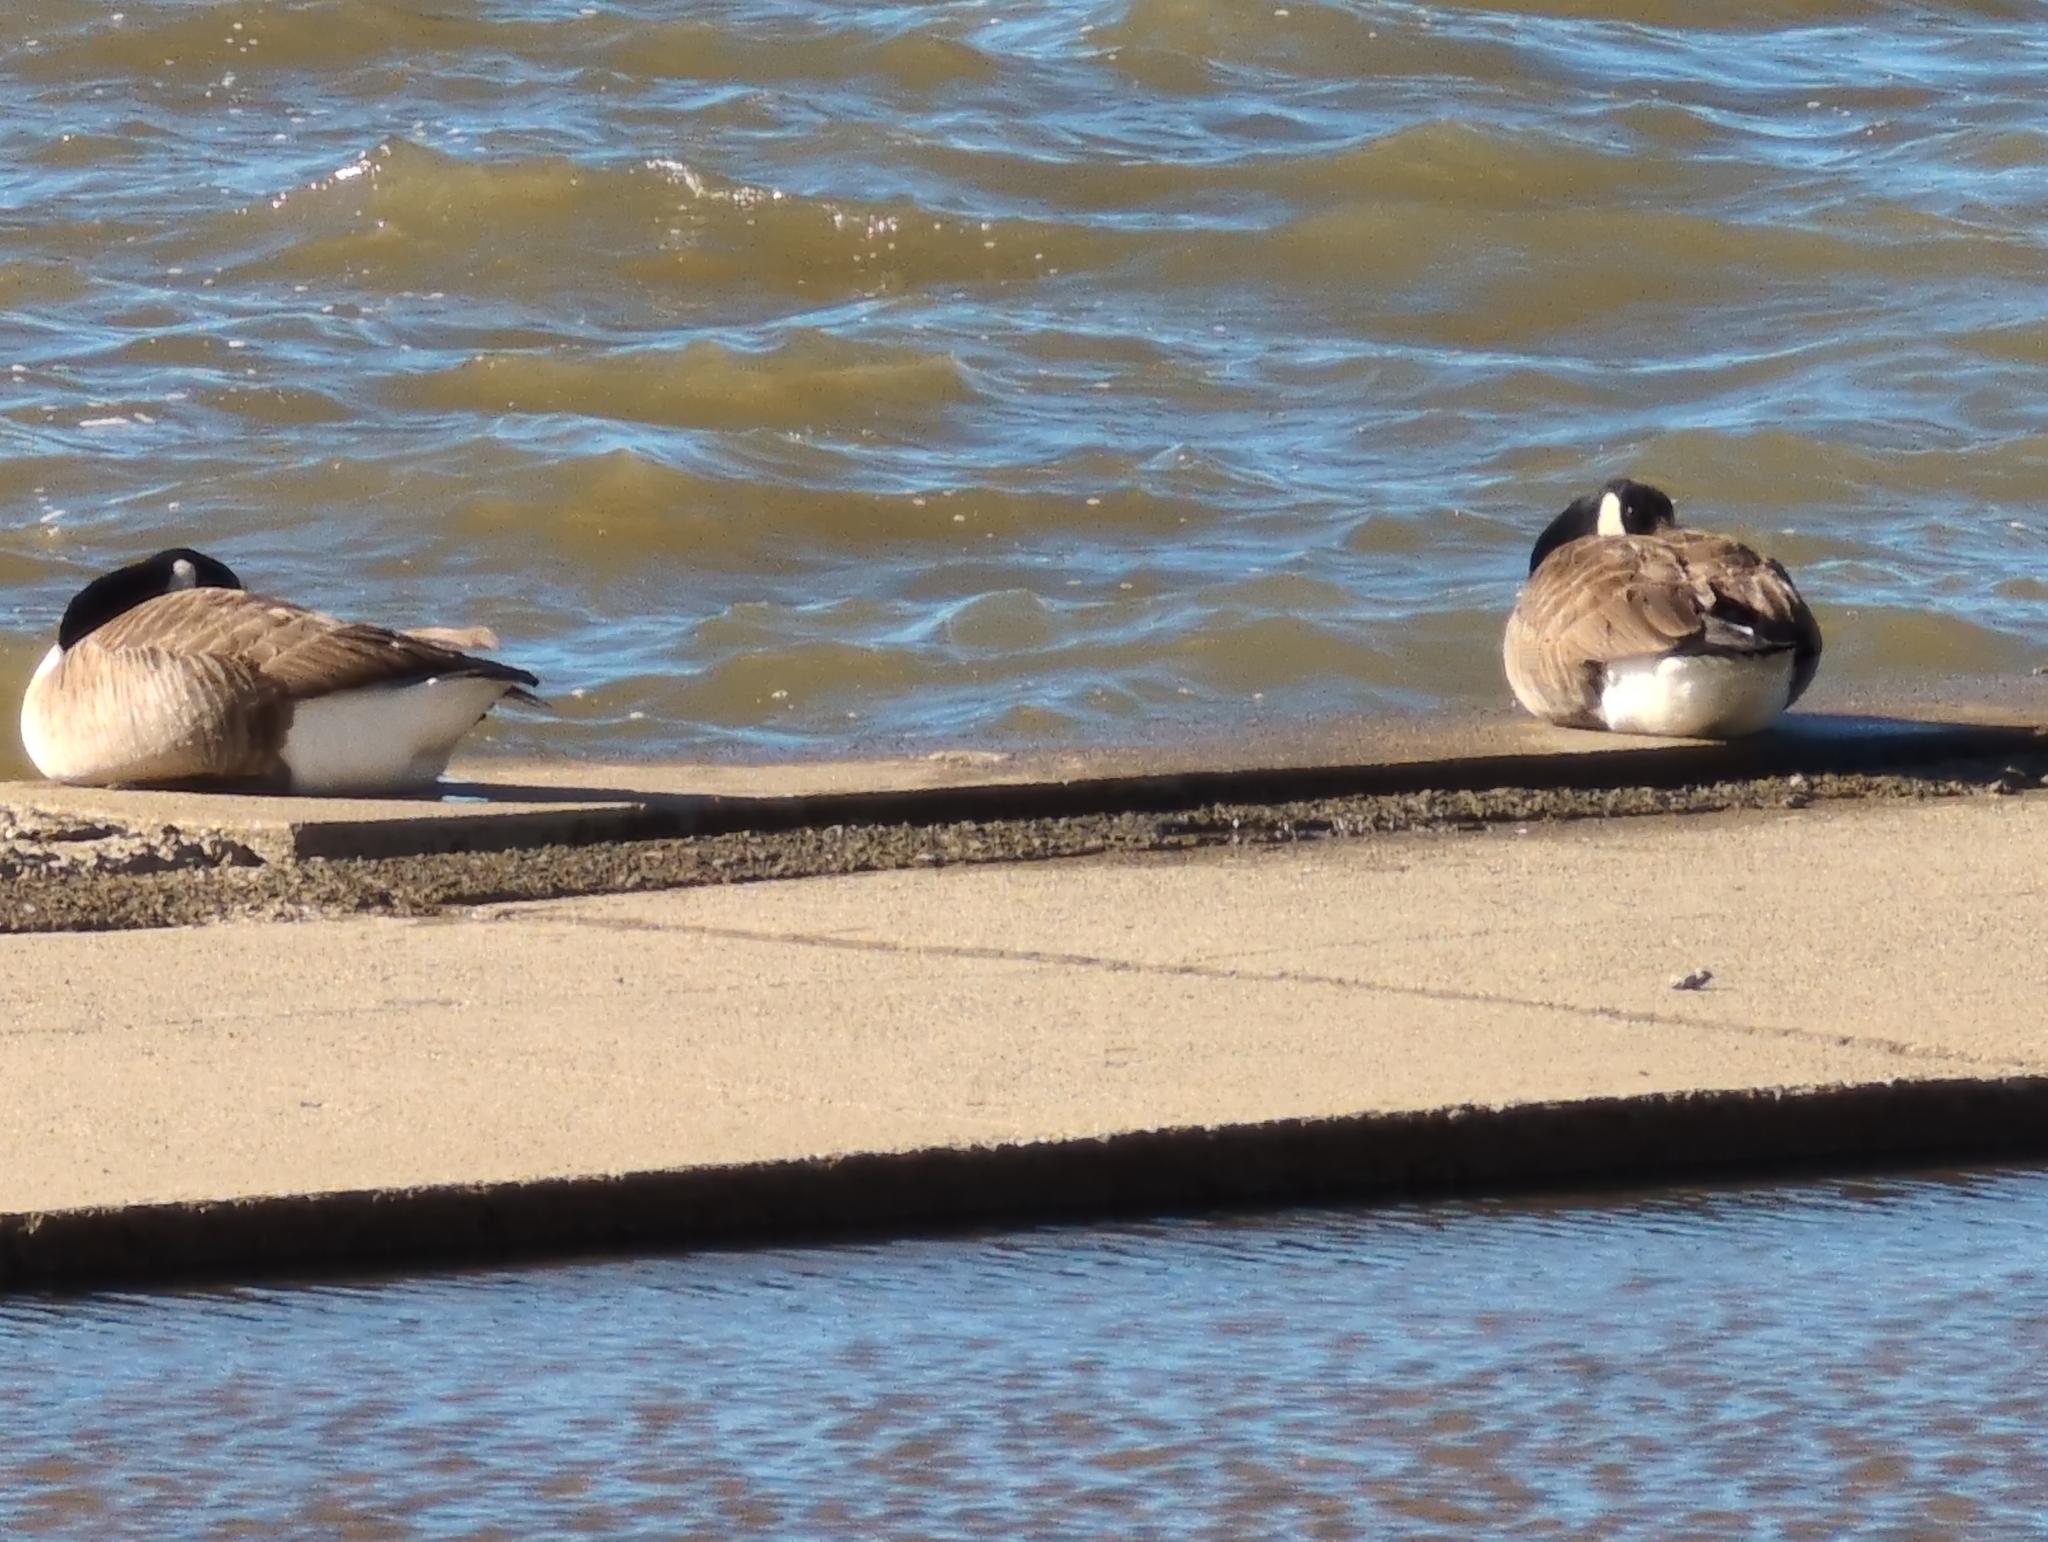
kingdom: Animalia
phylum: Chordata
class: Aves
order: Anseriformes
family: Anatidae
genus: Branta
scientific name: Branta canadensis
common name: Canada goose
